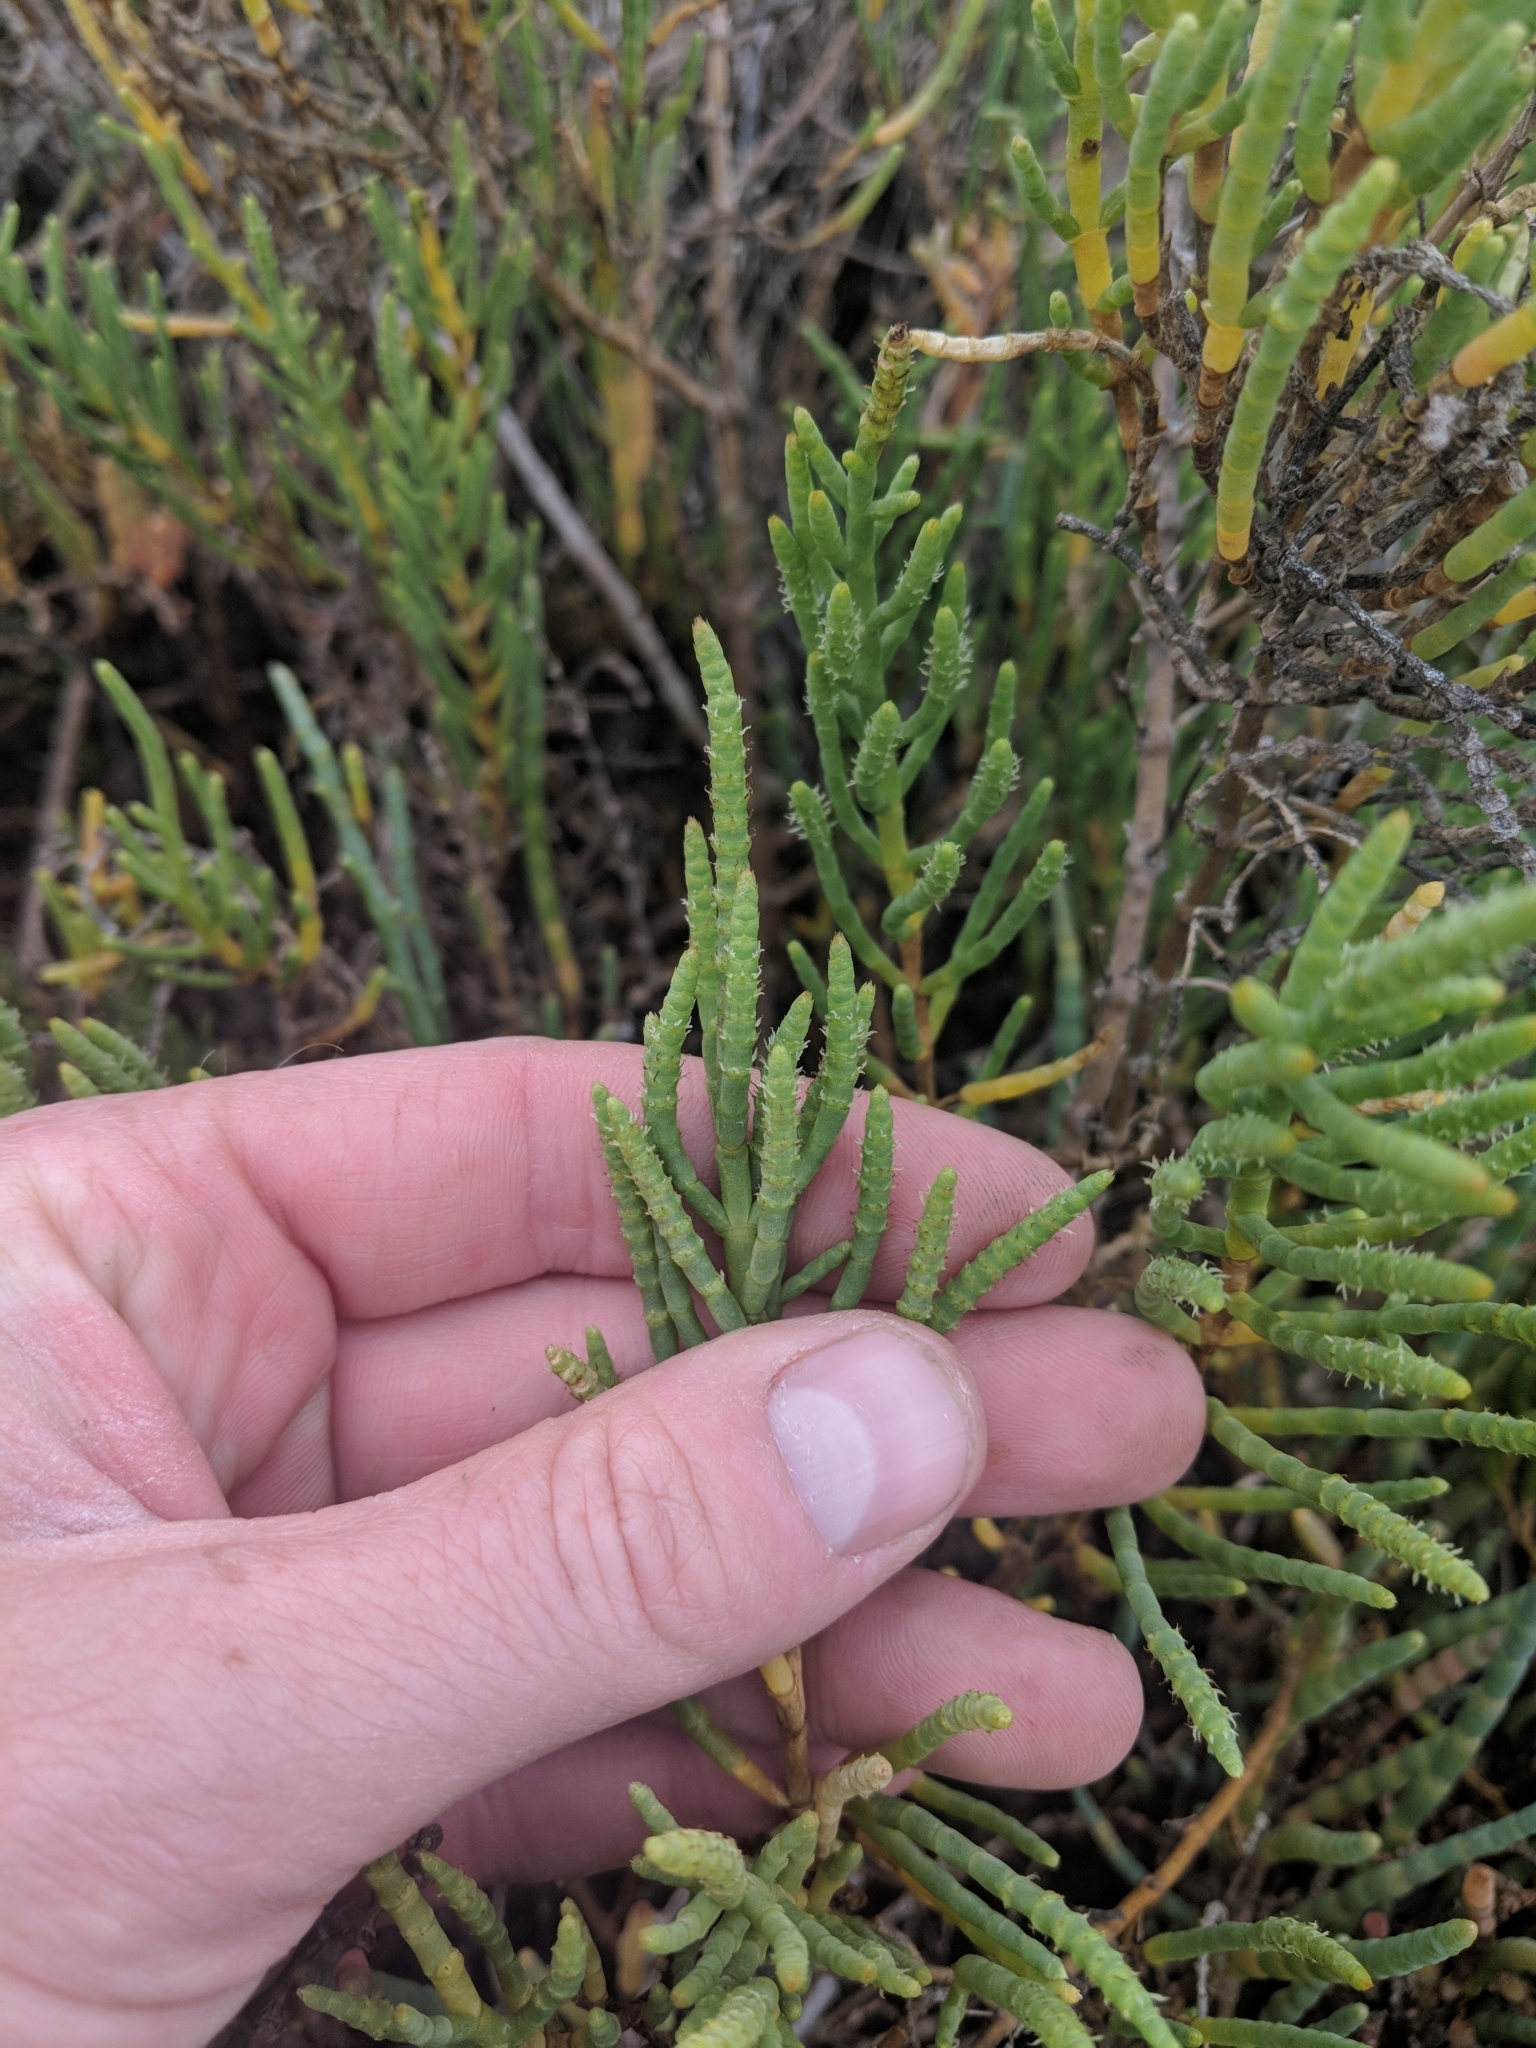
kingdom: Plantae
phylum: Tracheophyta
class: Magnoliopsida
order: Caryophyllales
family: Amaranthaceae
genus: Arthroceras
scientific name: Arthroceras subterminale
